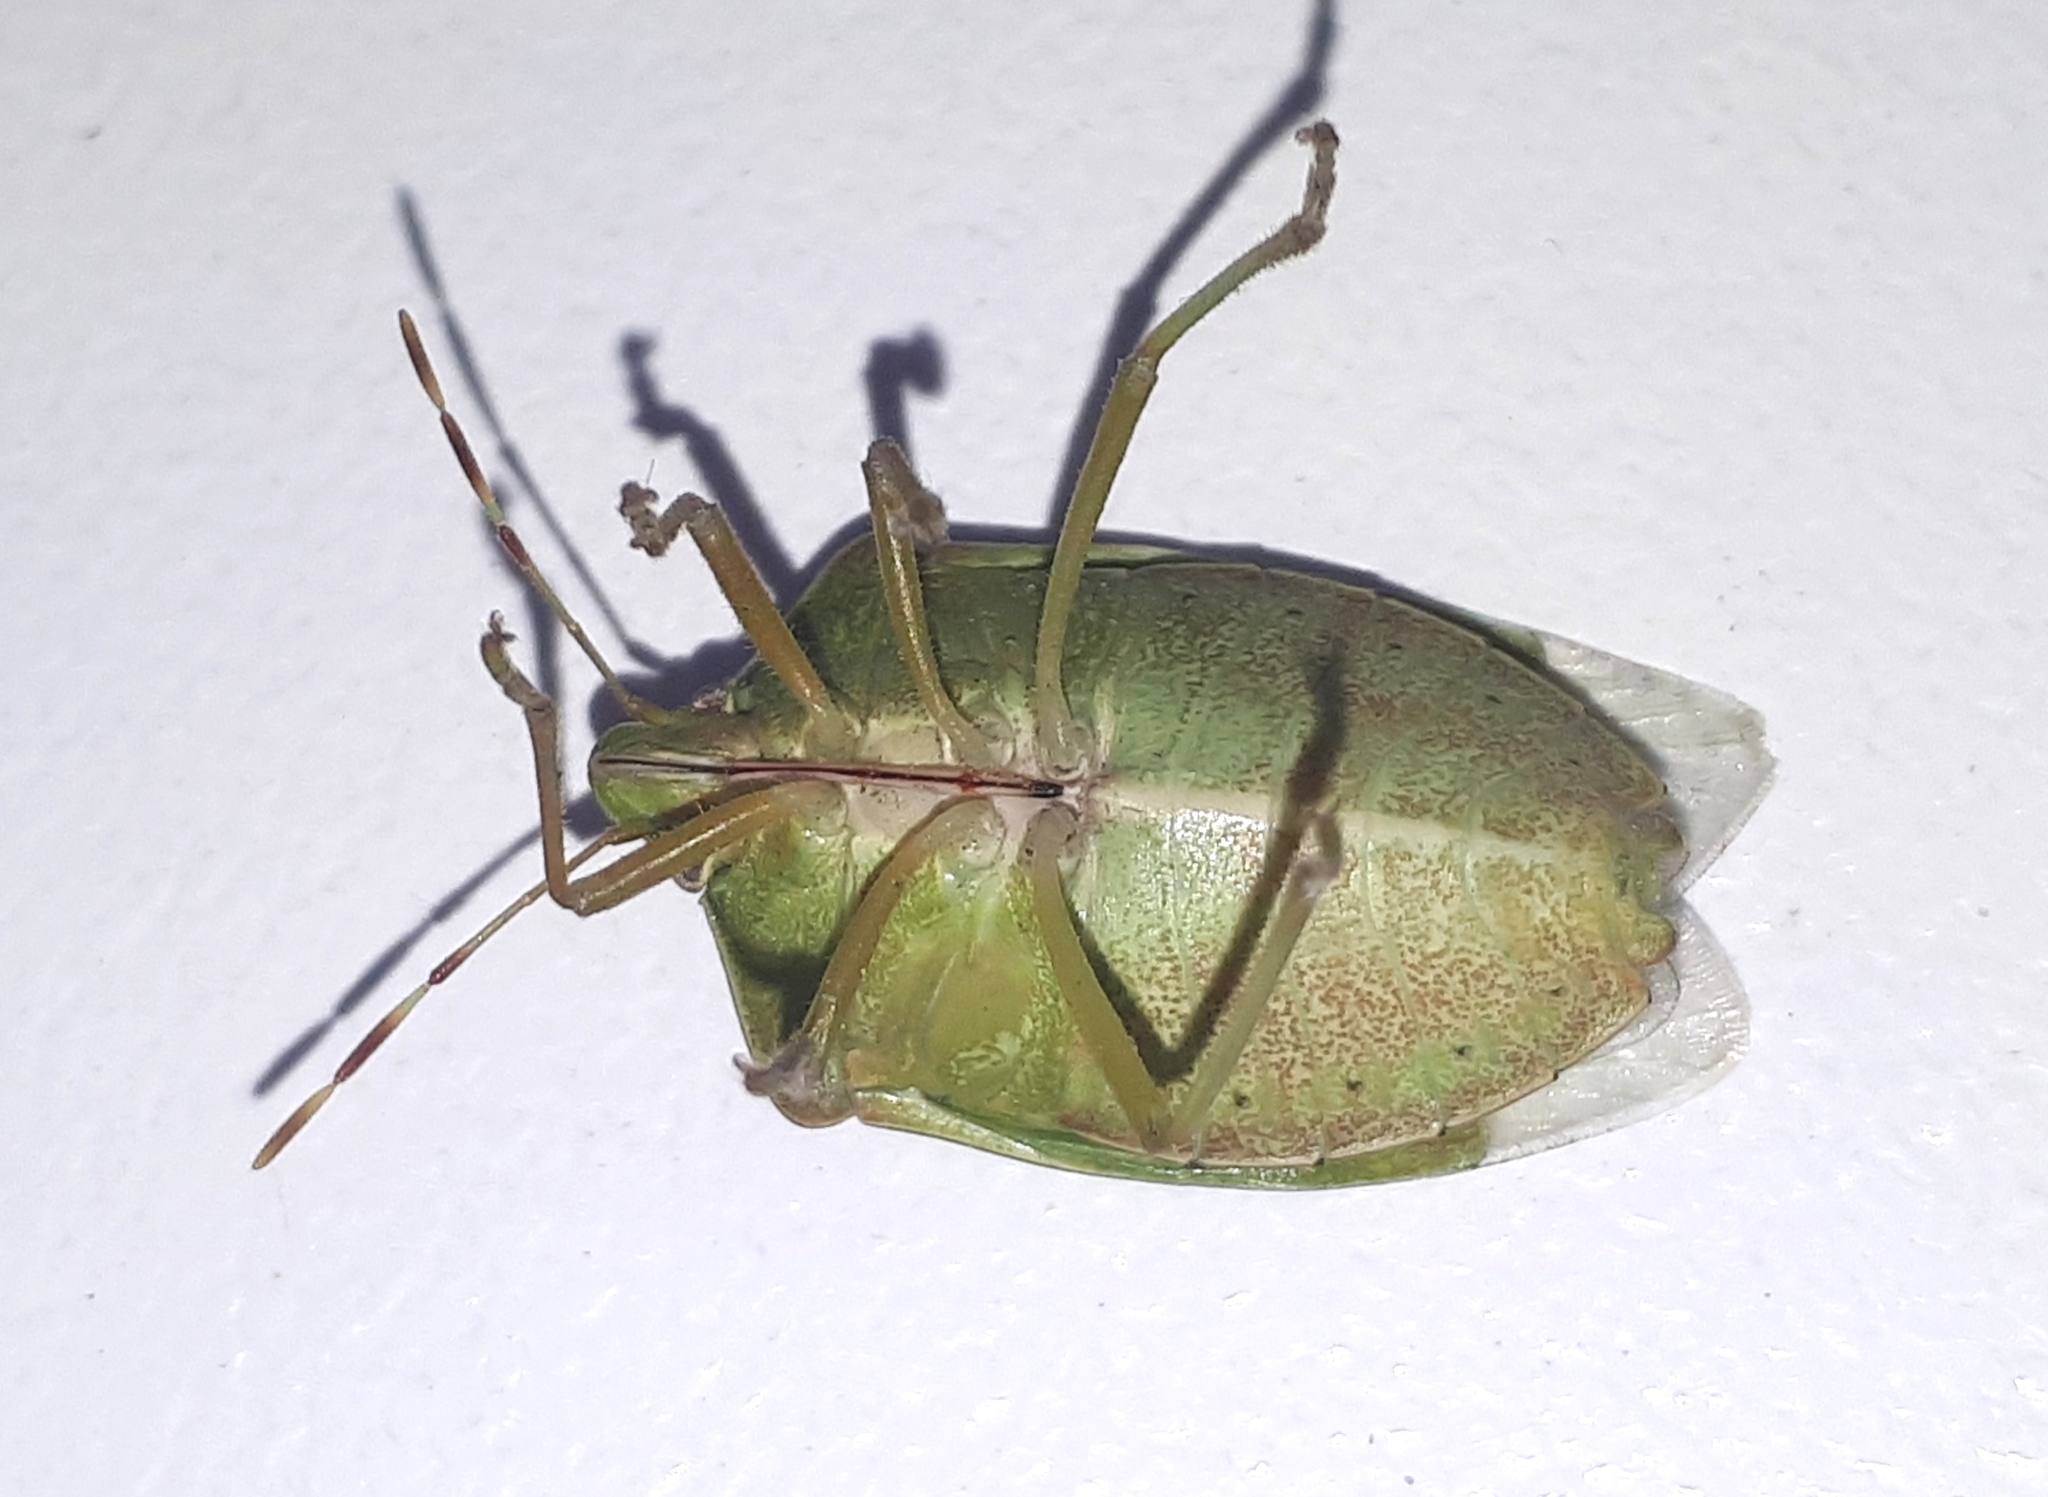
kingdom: Animalia
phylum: Arthropoda
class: Insecta
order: Hemiptera
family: Pentatomidae
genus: Nezara
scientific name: Nezara viridula
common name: Southern green stink bug
